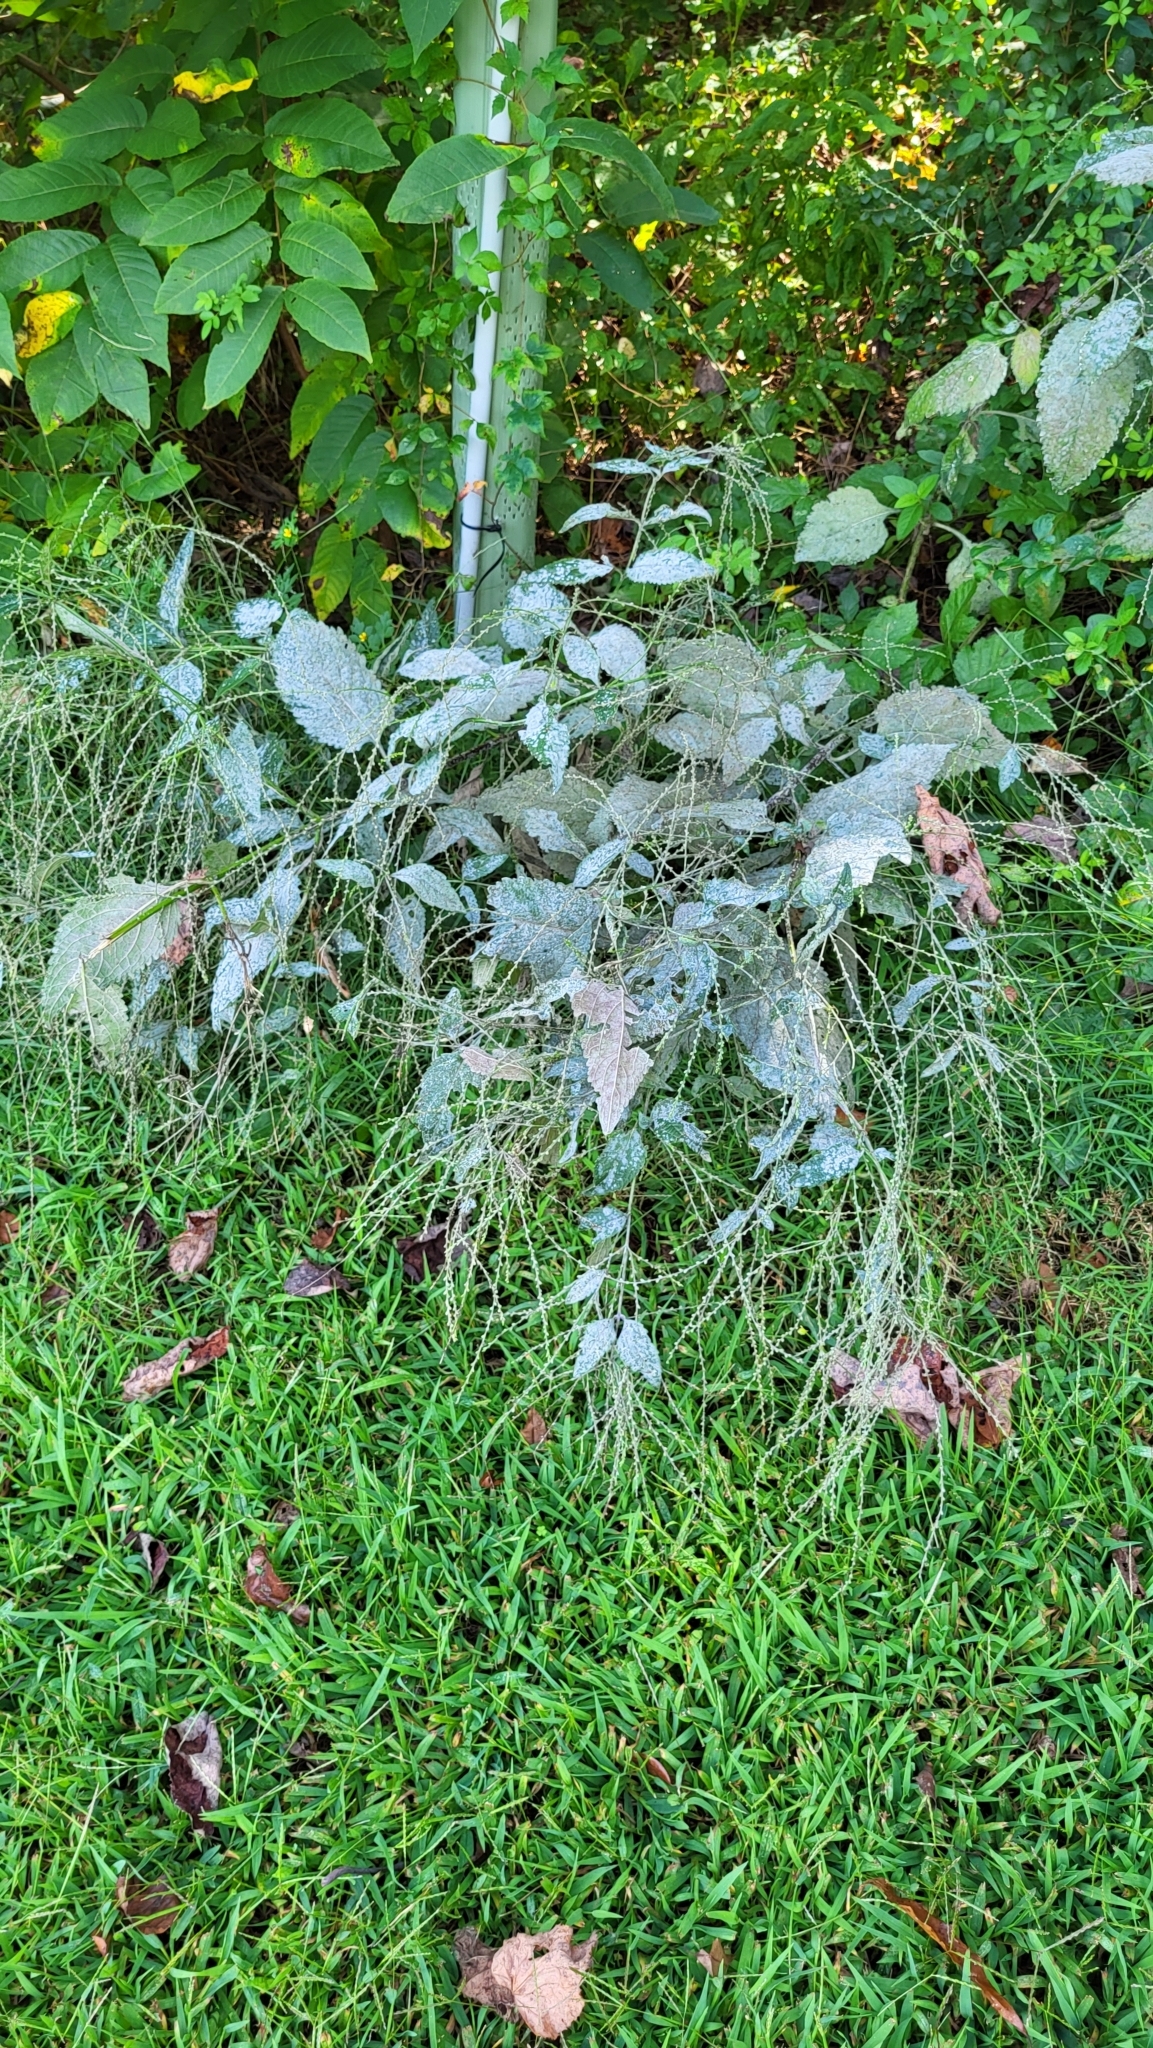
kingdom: Fungi
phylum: Ascomycota
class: Leotiomycetes
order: Helotiales
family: Erysiphaceae
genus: Golovinomyces
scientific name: Golovinomyces verbenae
